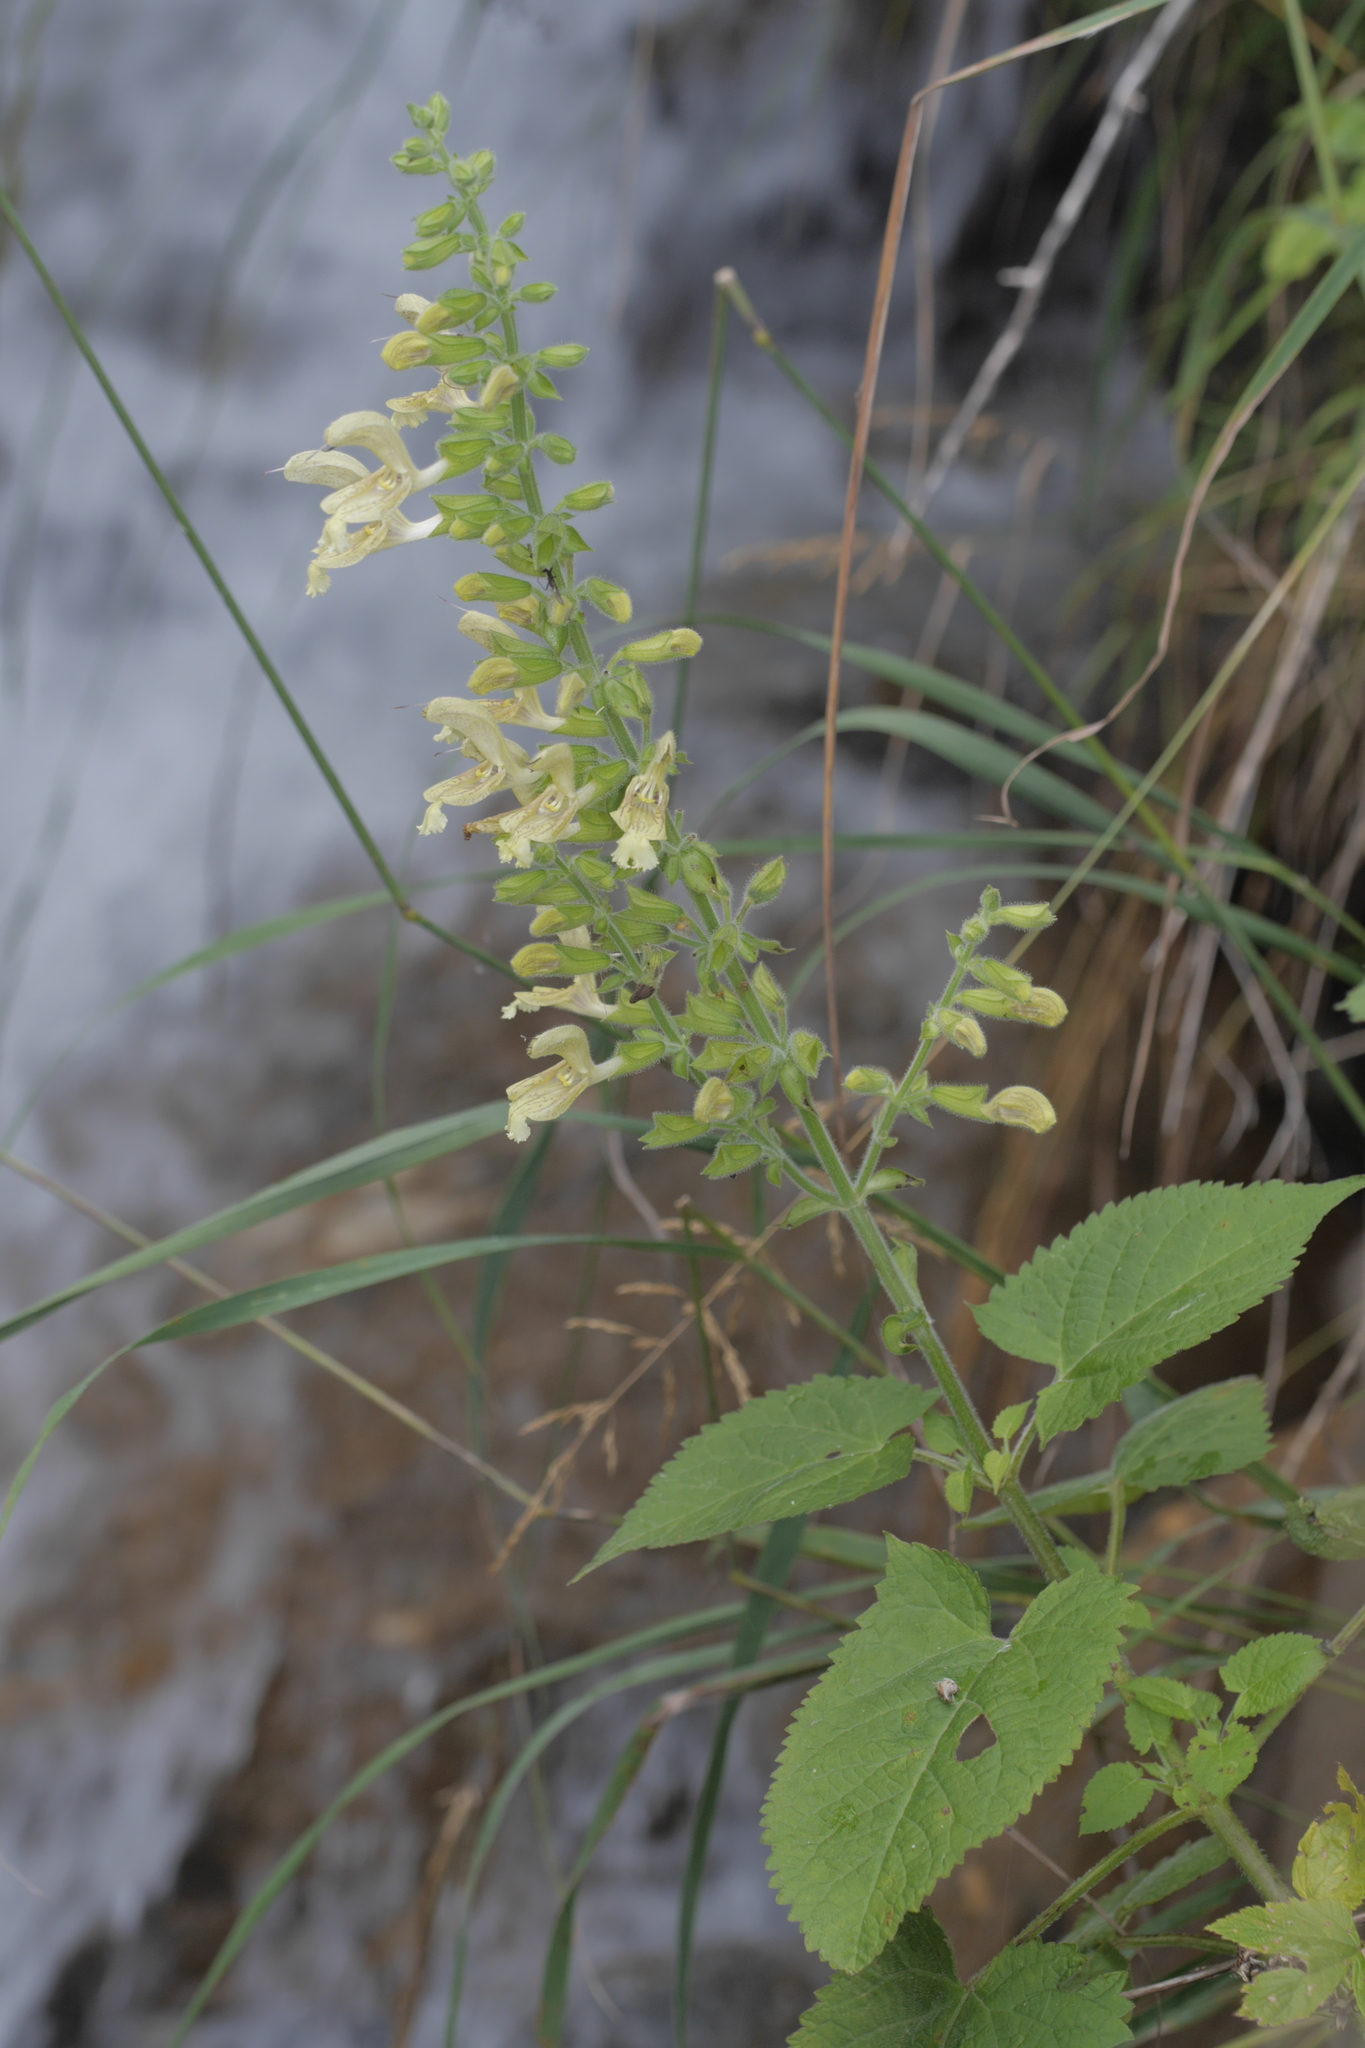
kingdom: Plantae
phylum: Tracheophyta
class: Magnoliopsida
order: Lamiales
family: Lamiaceae
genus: Salvia
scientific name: Salvia glutinosa
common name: Sticky clary
